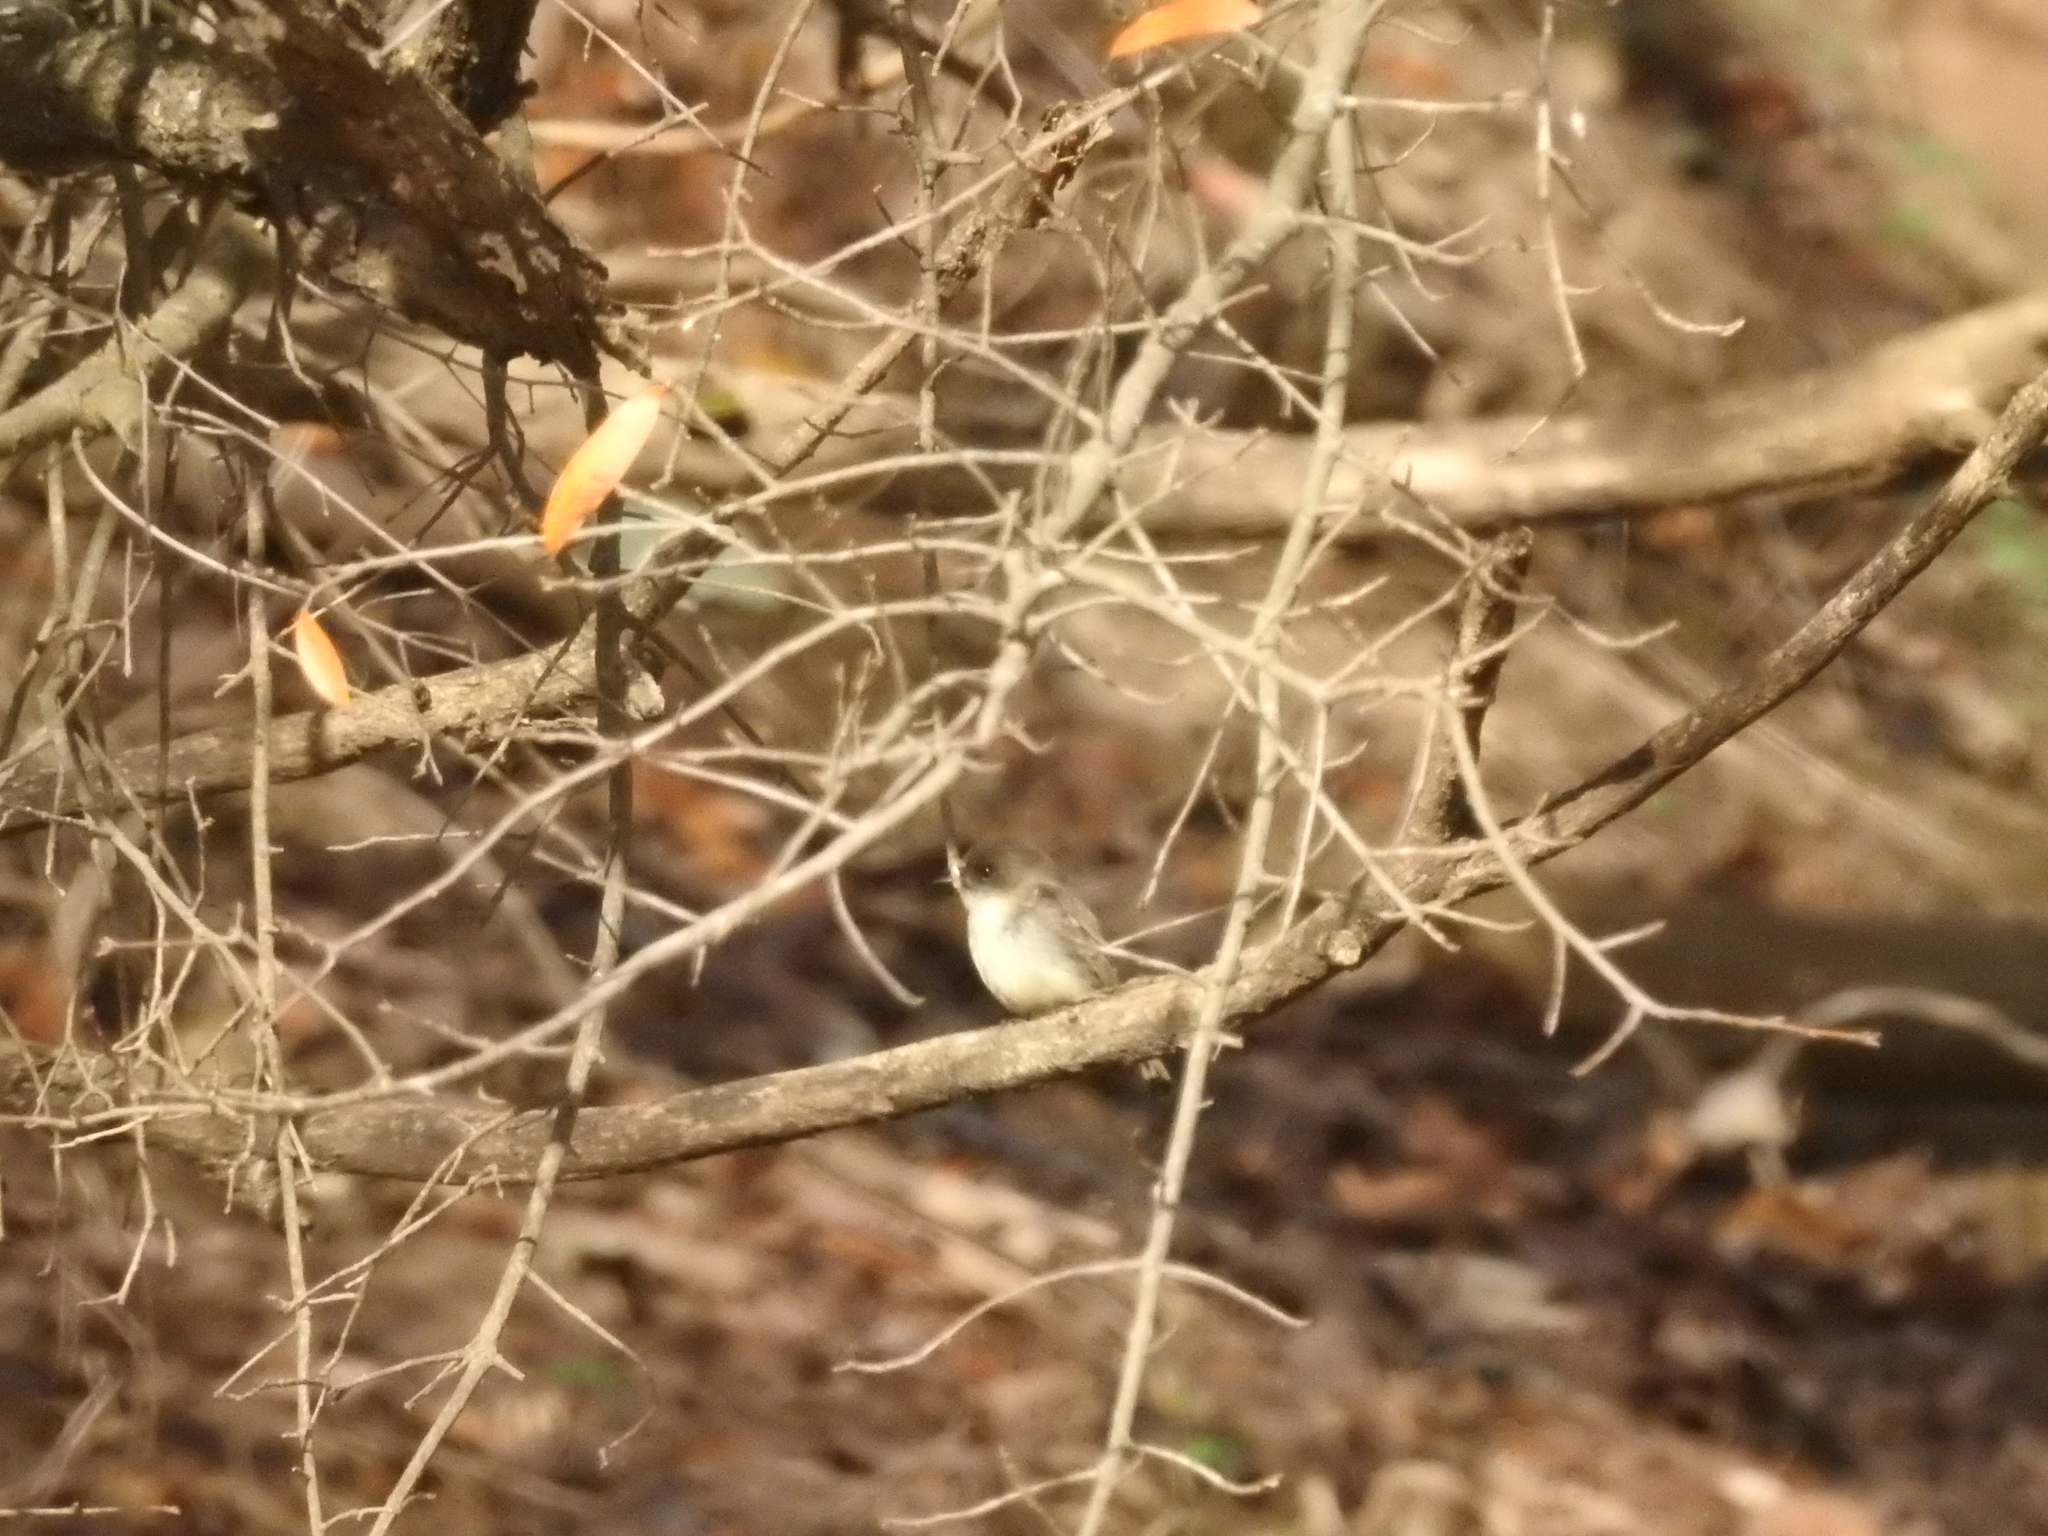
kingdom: Animalia
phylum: Chordata
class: Aves
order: Passeriformes
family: Tyrannidae
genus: Sayornis
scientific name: Sayornis phoebe
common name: Eastern phoebe
